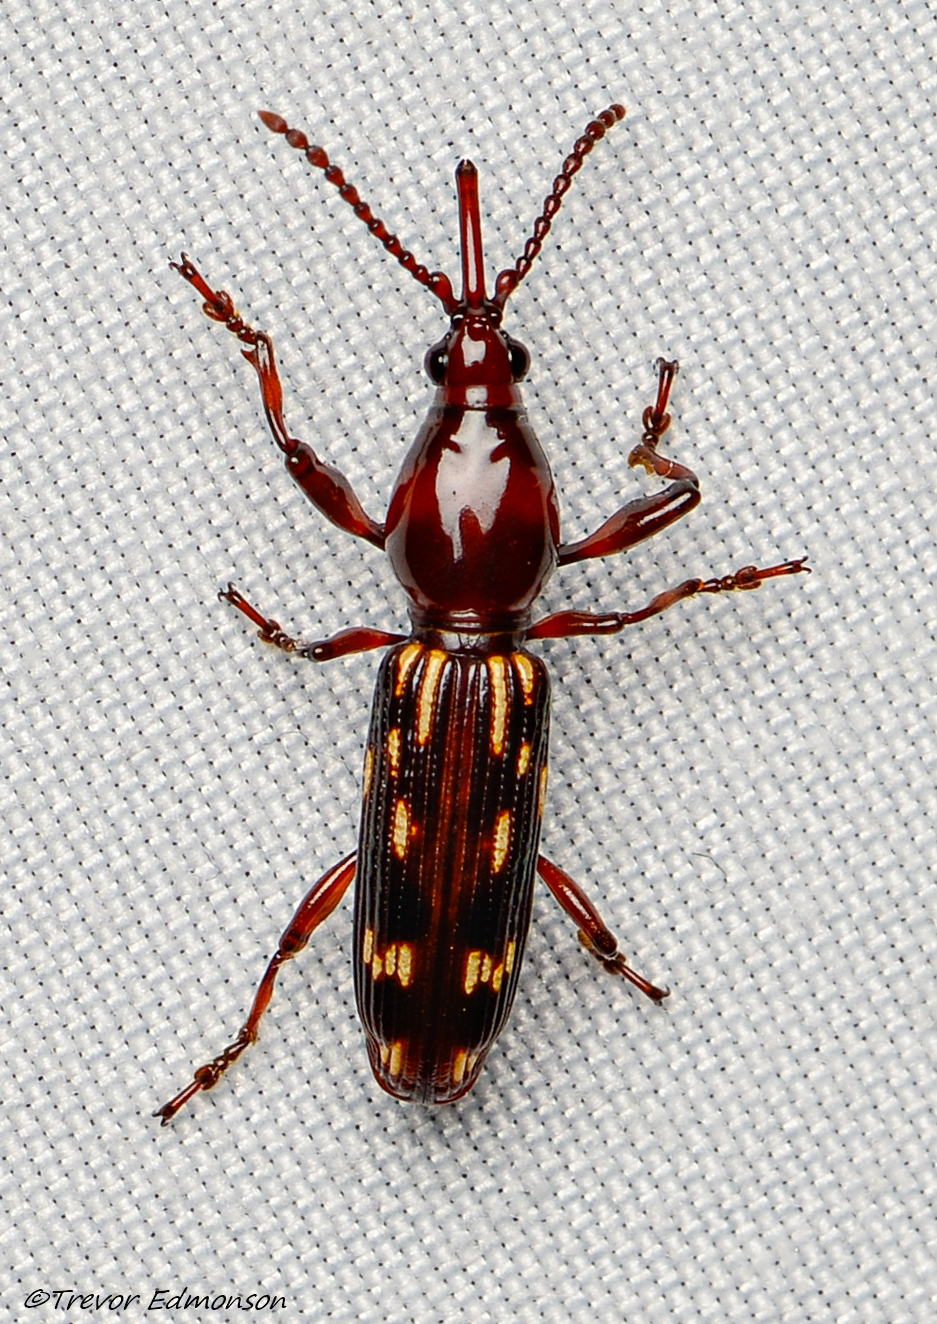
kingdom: Animalia
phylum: Arthropoda
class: Insecta
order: Coleoptera
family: Brentidae
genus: Arrenodes
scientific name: Arrenodes minutus
